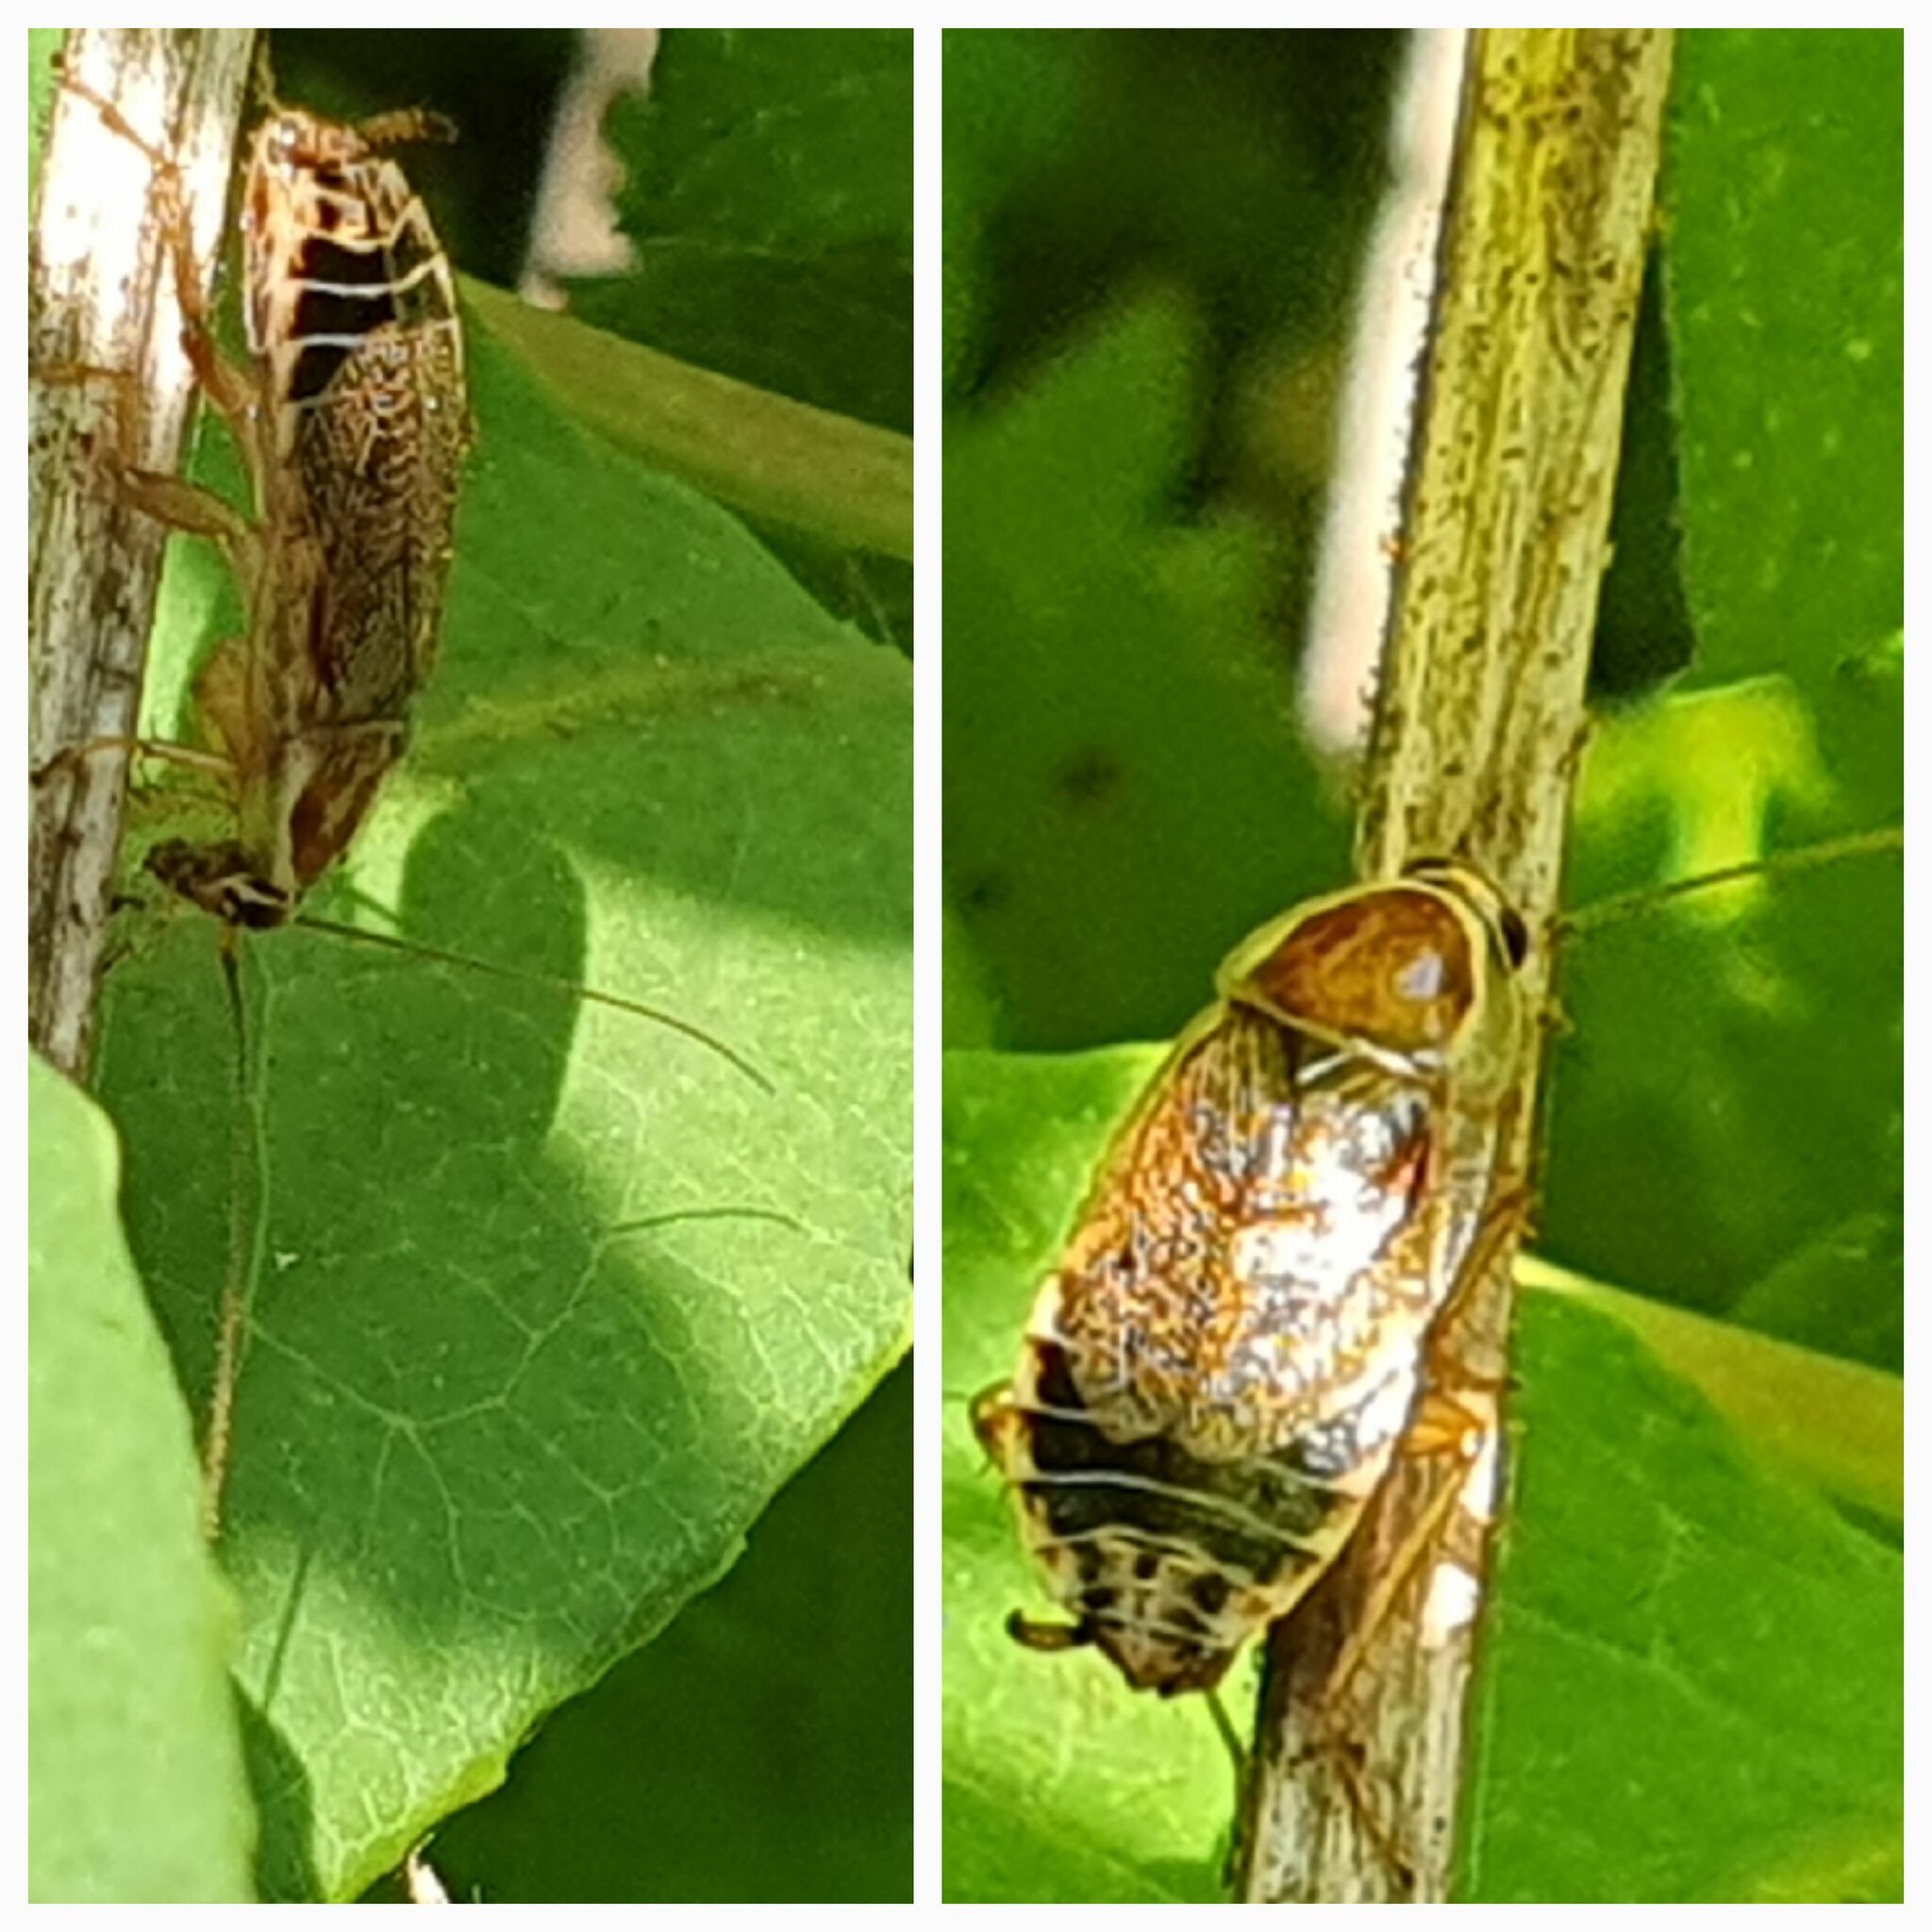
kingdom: Animalia
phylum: Arthropoda
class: Insecta
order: Blattodea
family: Ectobiidae
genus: Ectobius
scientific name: Ectobius sylvestris
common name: Forest cockroach
